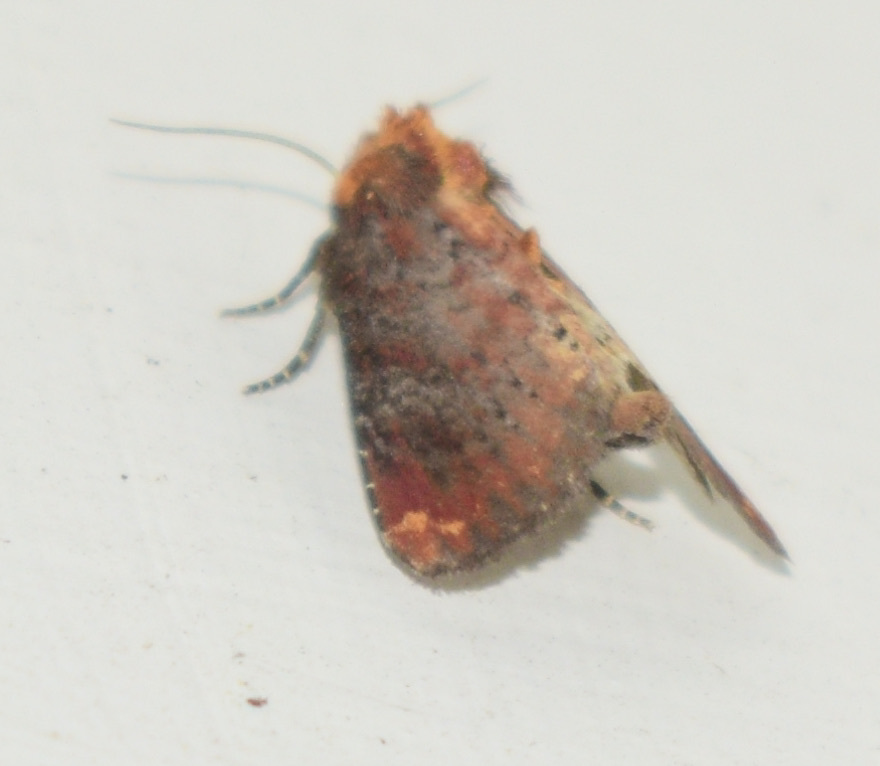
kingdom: Animalia
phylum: Arthropoda
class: Insecta
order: Lepidoptera
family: Noctuidae
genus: Achatodes
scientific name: Achatodes zeae
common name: Elder shoot borer
